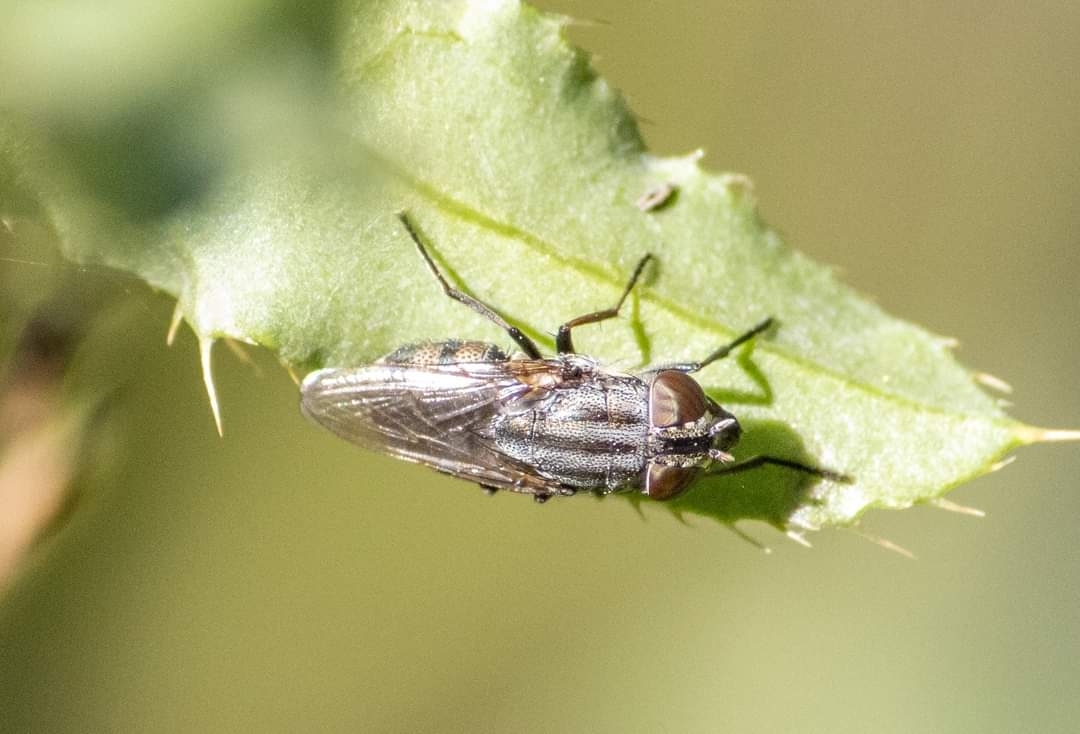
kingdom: Animalia
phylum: Arthropoda
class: Insecta
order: Diptera
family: Calliphoridae
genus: Stomorhina
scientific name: Stomorhina lunata
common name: Locust blowfly
